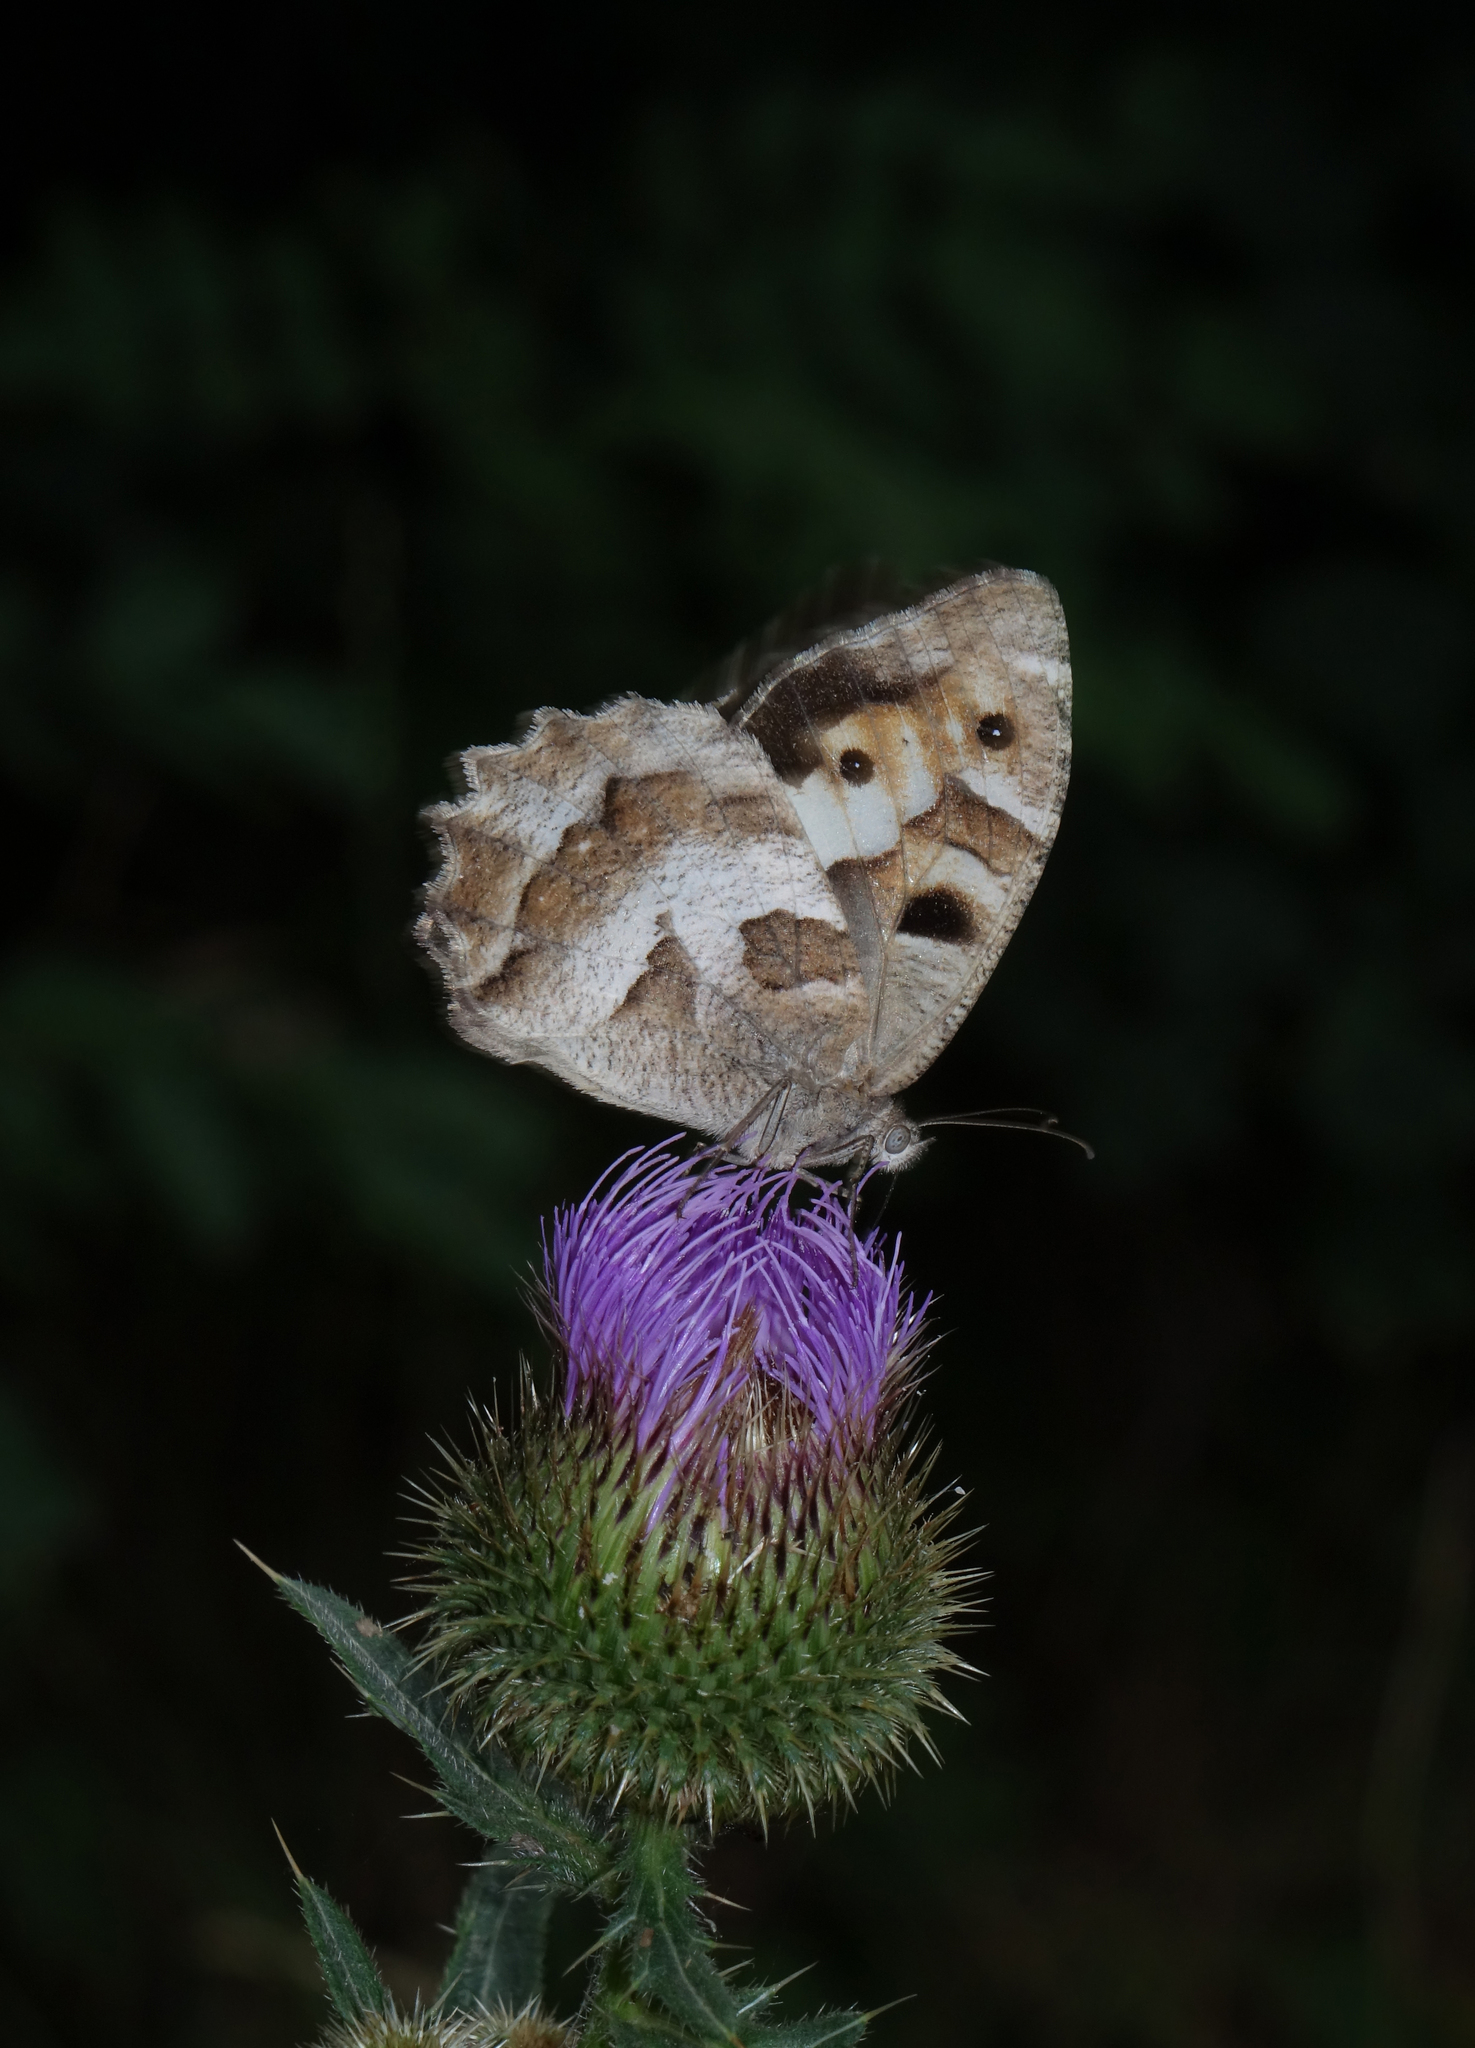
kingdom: Animalia
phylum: Arthropoda
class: Insecta
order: Lepidoptera
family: Nymphalidae
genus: Satyrus
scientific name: Satyrus briseis
